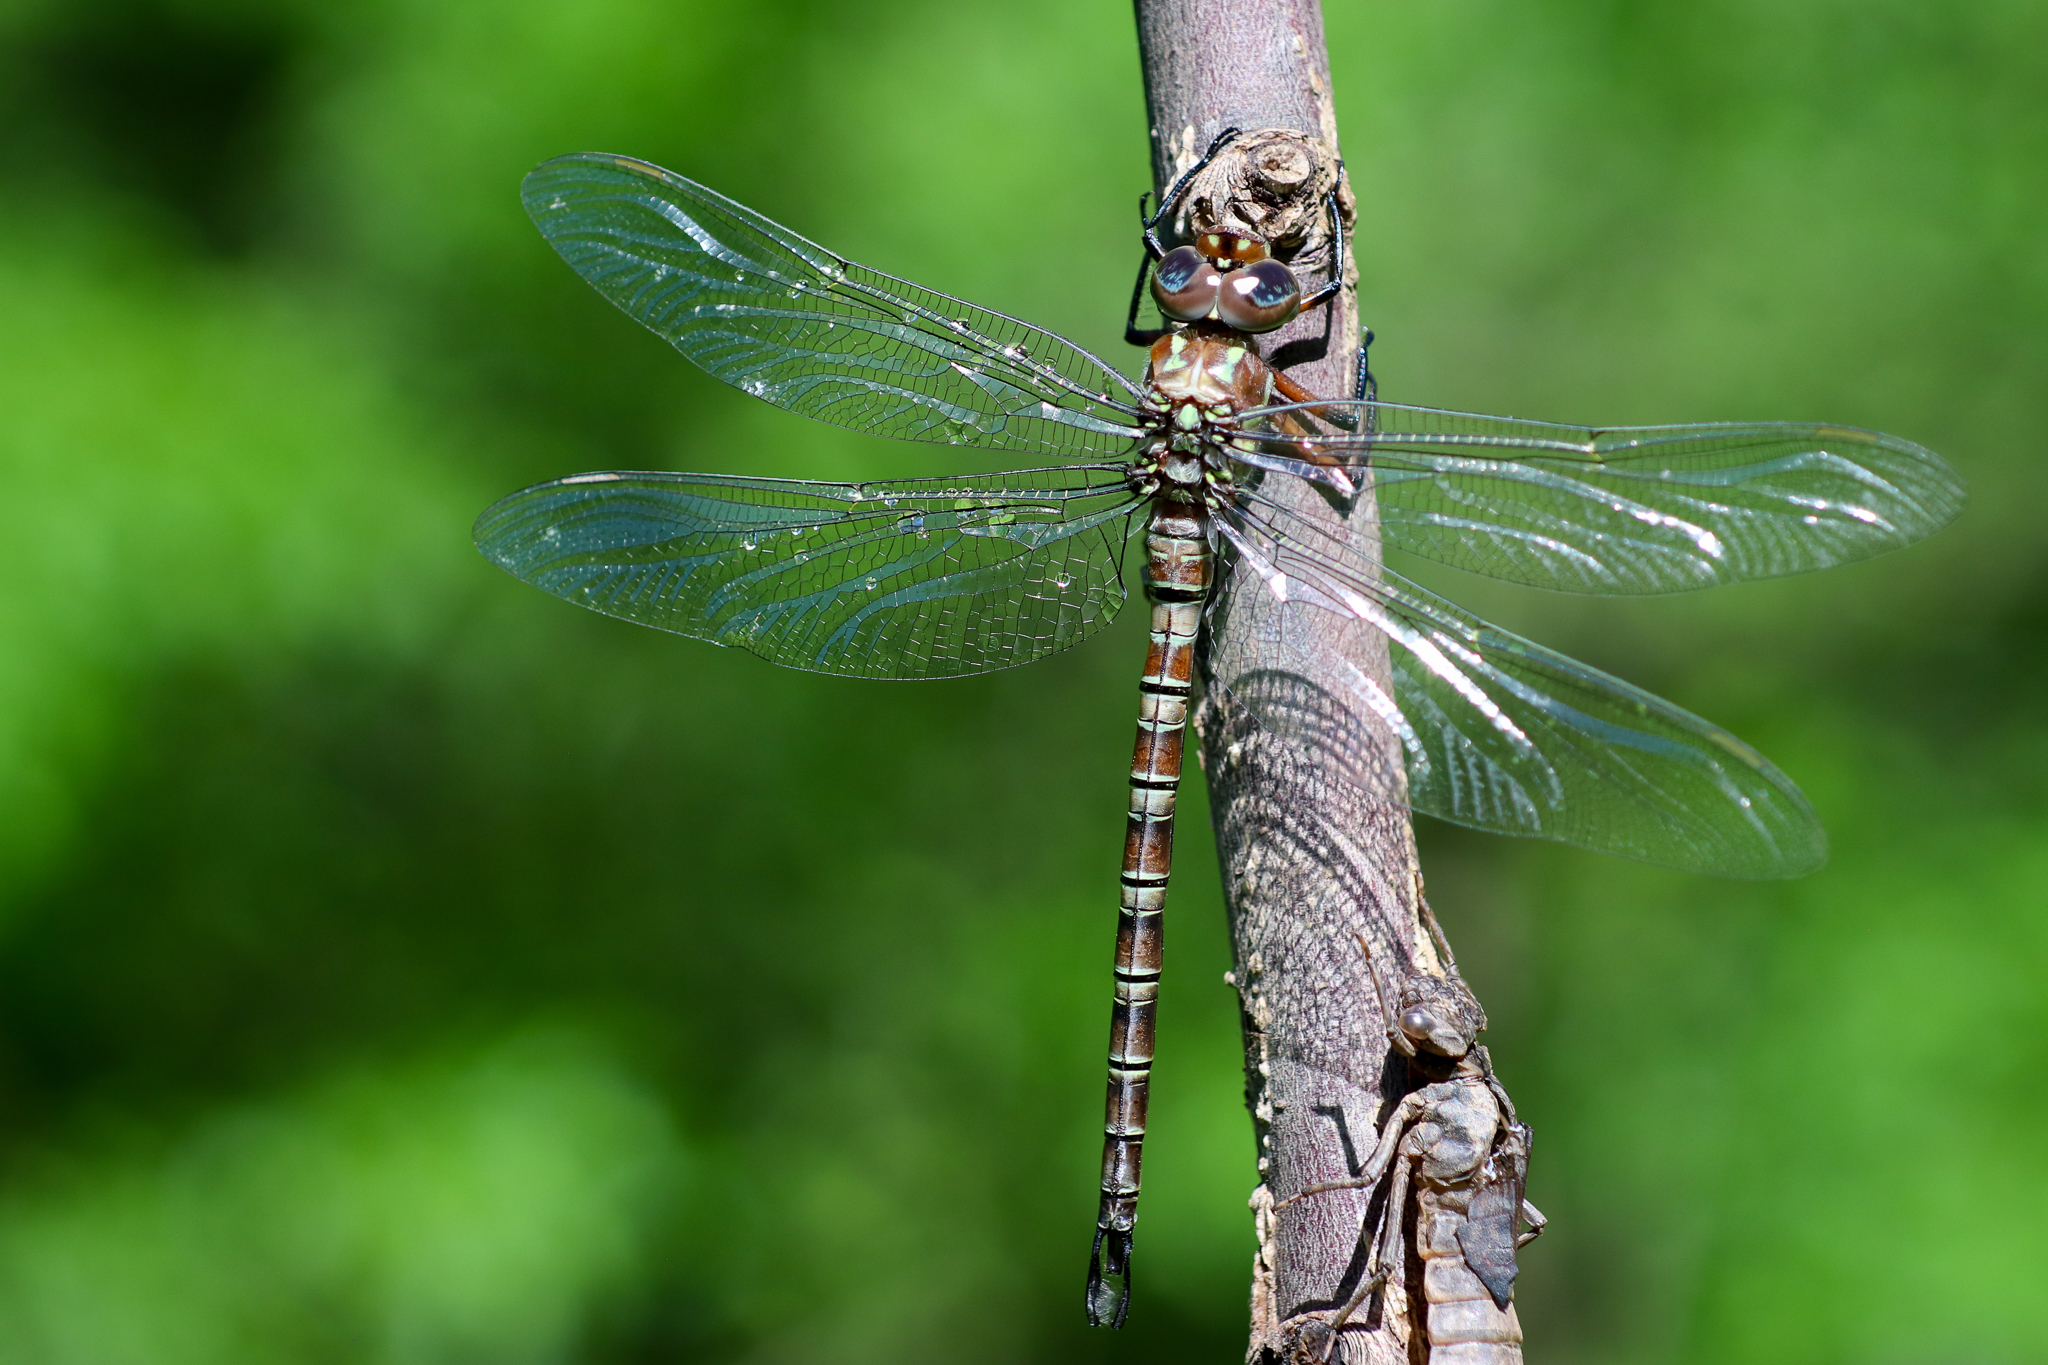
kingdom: Animalia
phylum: Arthropoda
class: Insecta
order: Odonata
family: Aeshnidae
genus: Epiaeschna
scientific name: Epiaeschna heros
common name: Swamp darner
